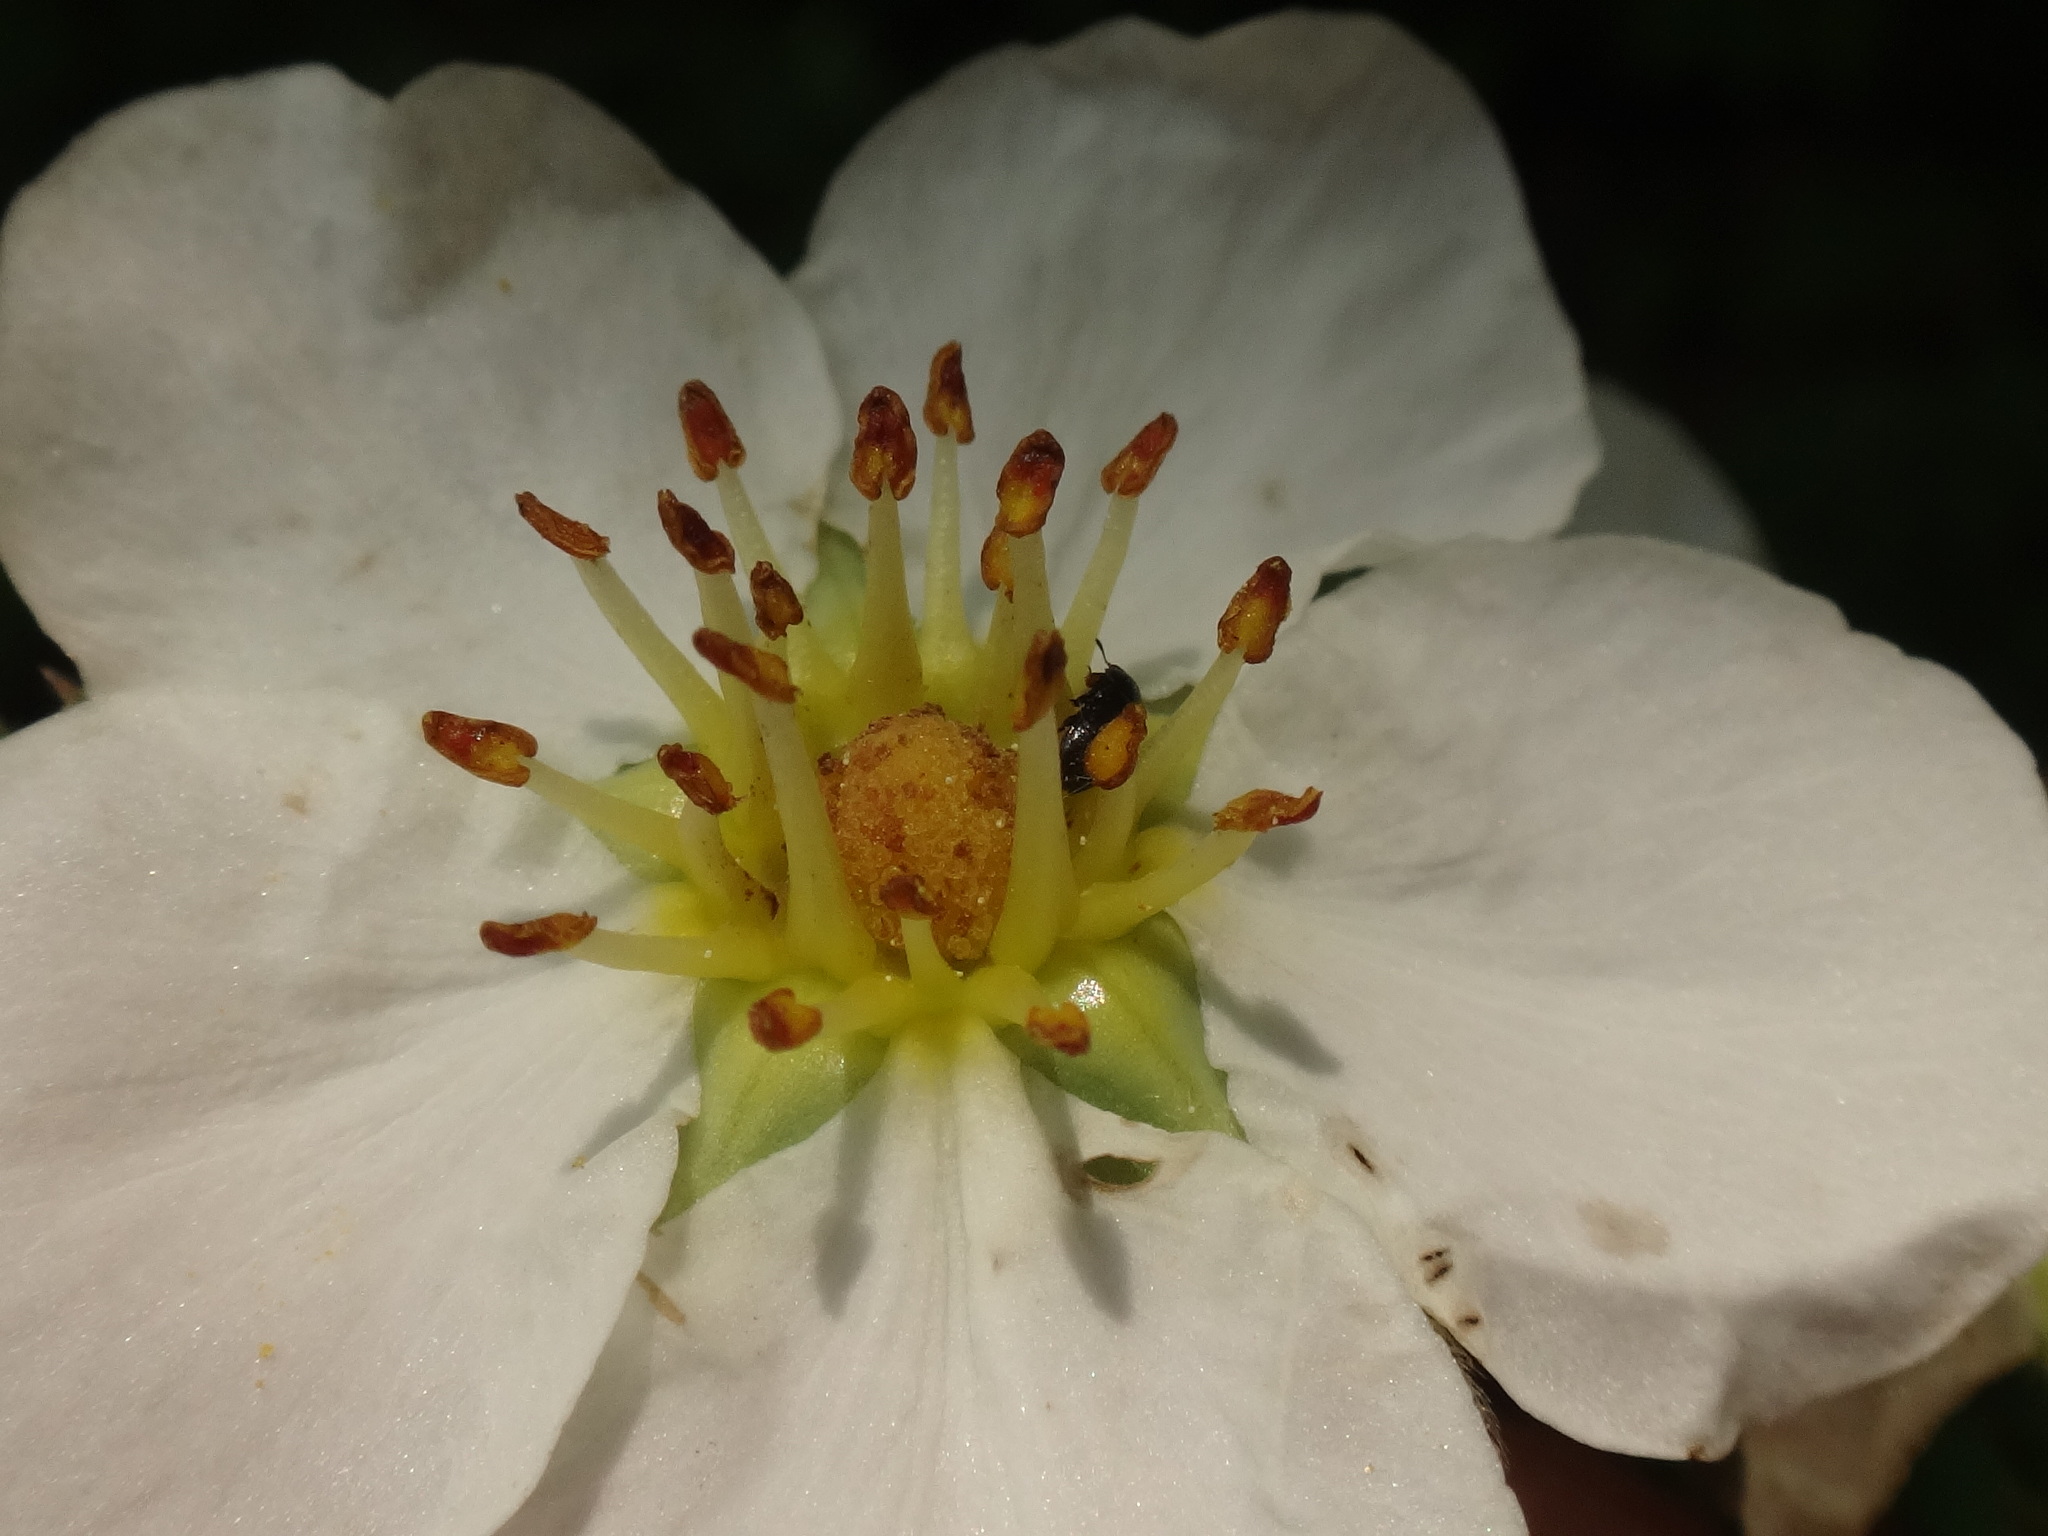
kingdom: Plantae
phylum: Tracheophyta
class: Magnoliopsida
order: Rosales
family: Rosaceae
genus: Fragaria
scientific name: Fragaria moschata
